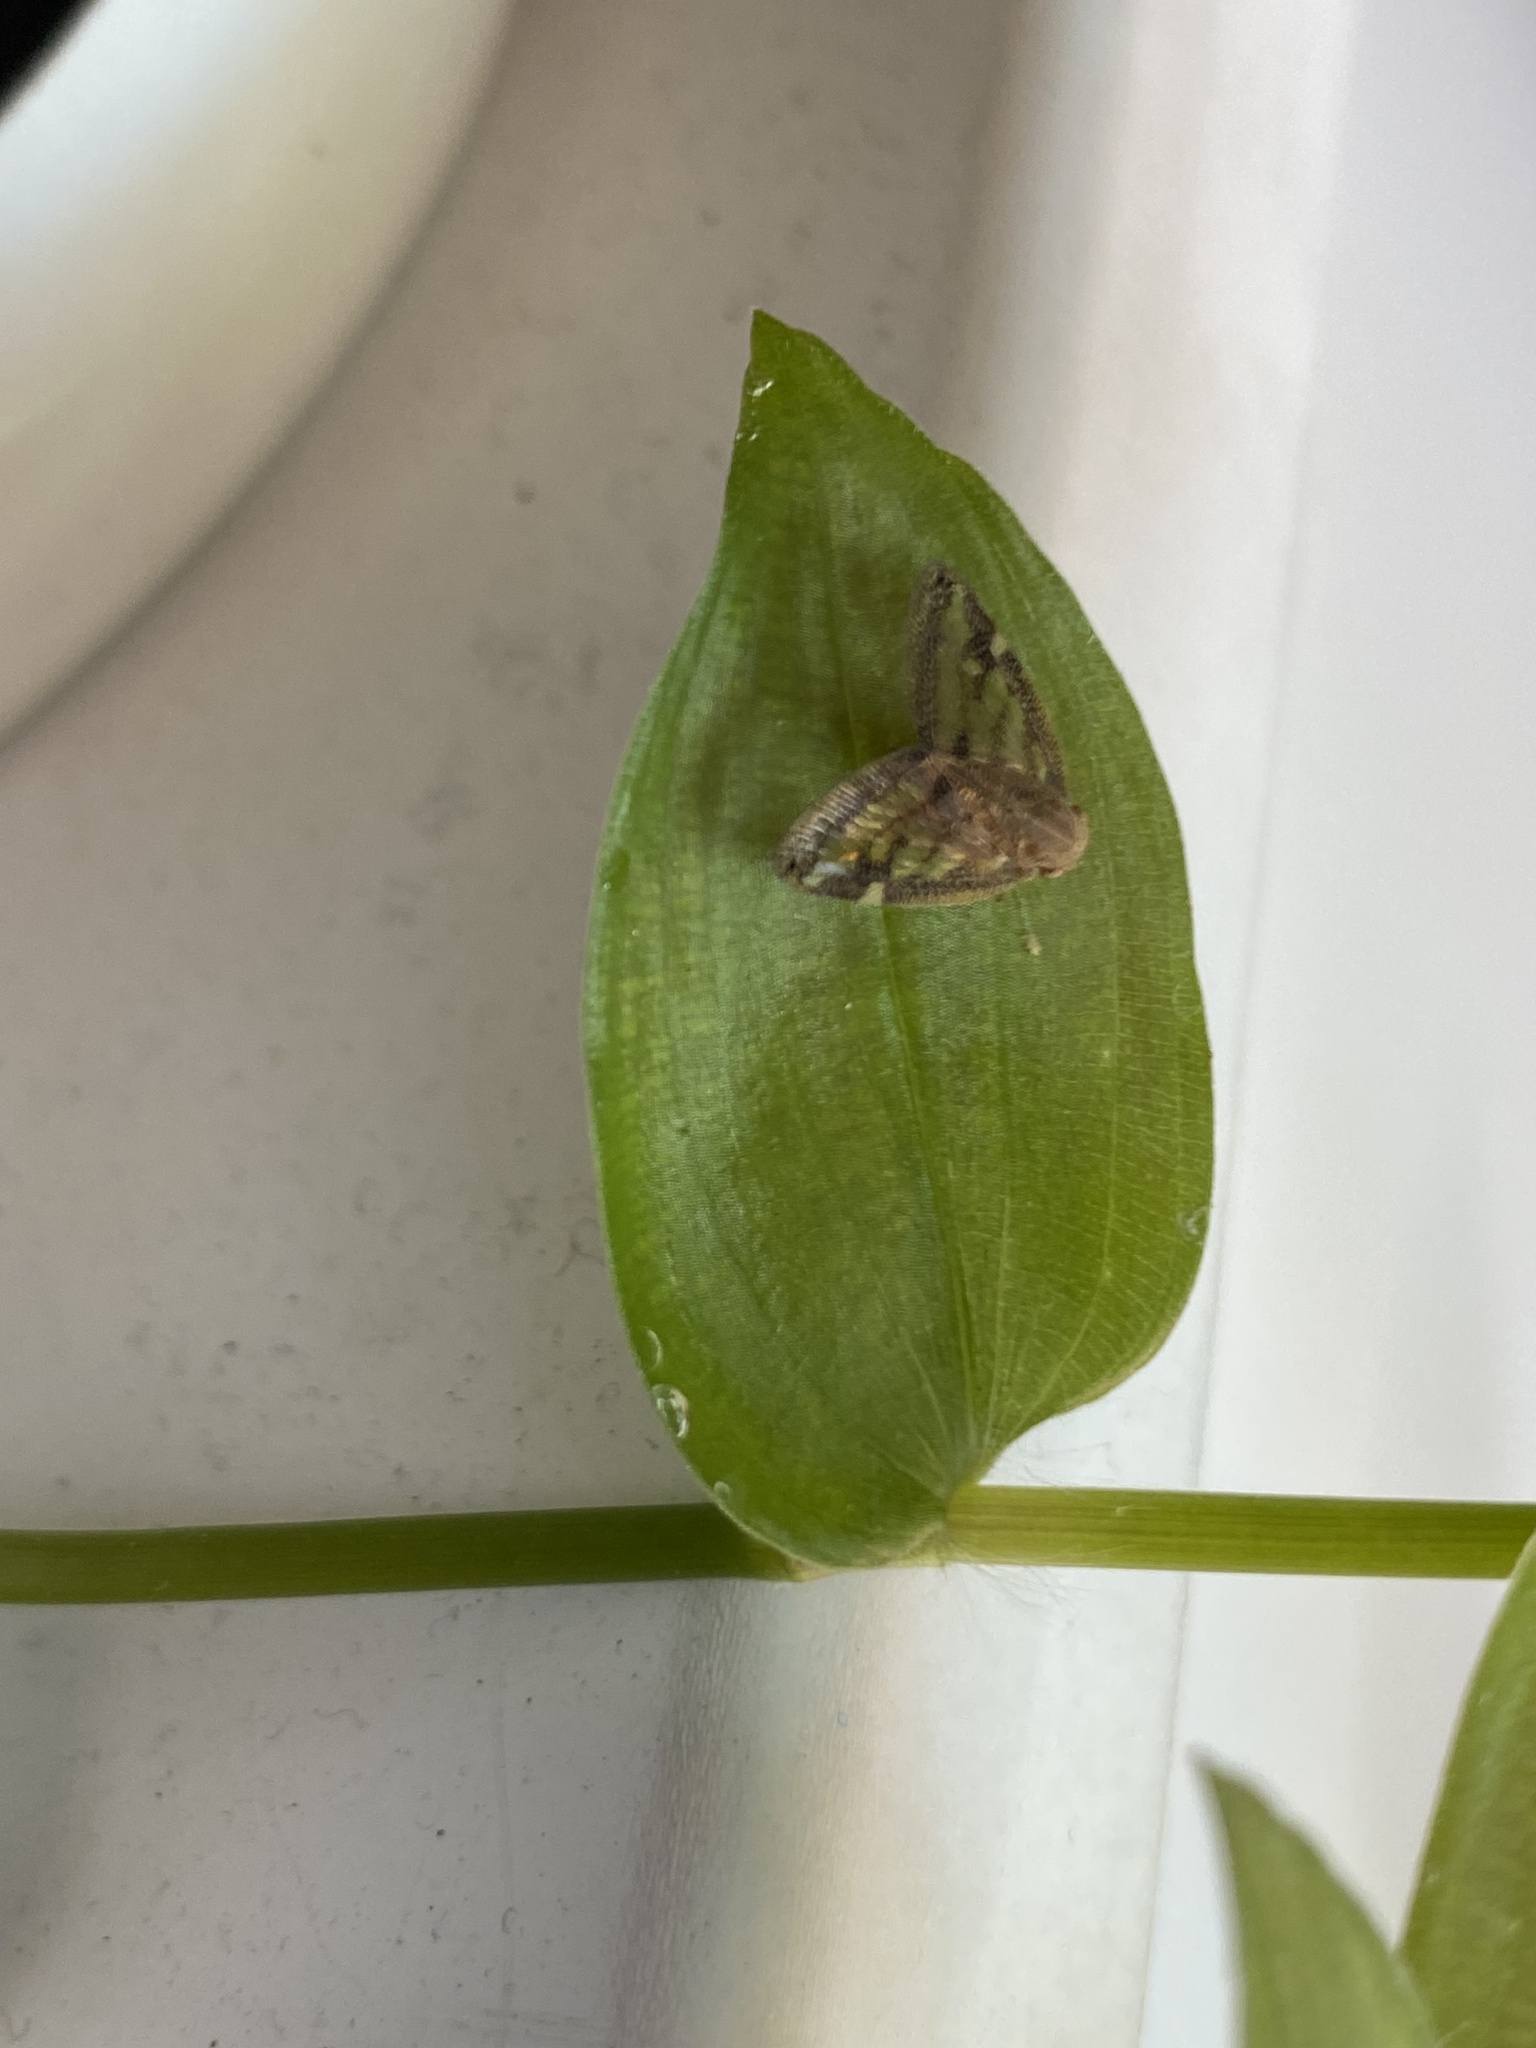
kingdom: Animalia
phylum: Arthropoda
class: Insecta
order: Hemiptera
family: Ricaniidae
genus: Scolypopa
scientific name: Scolypopa australis
